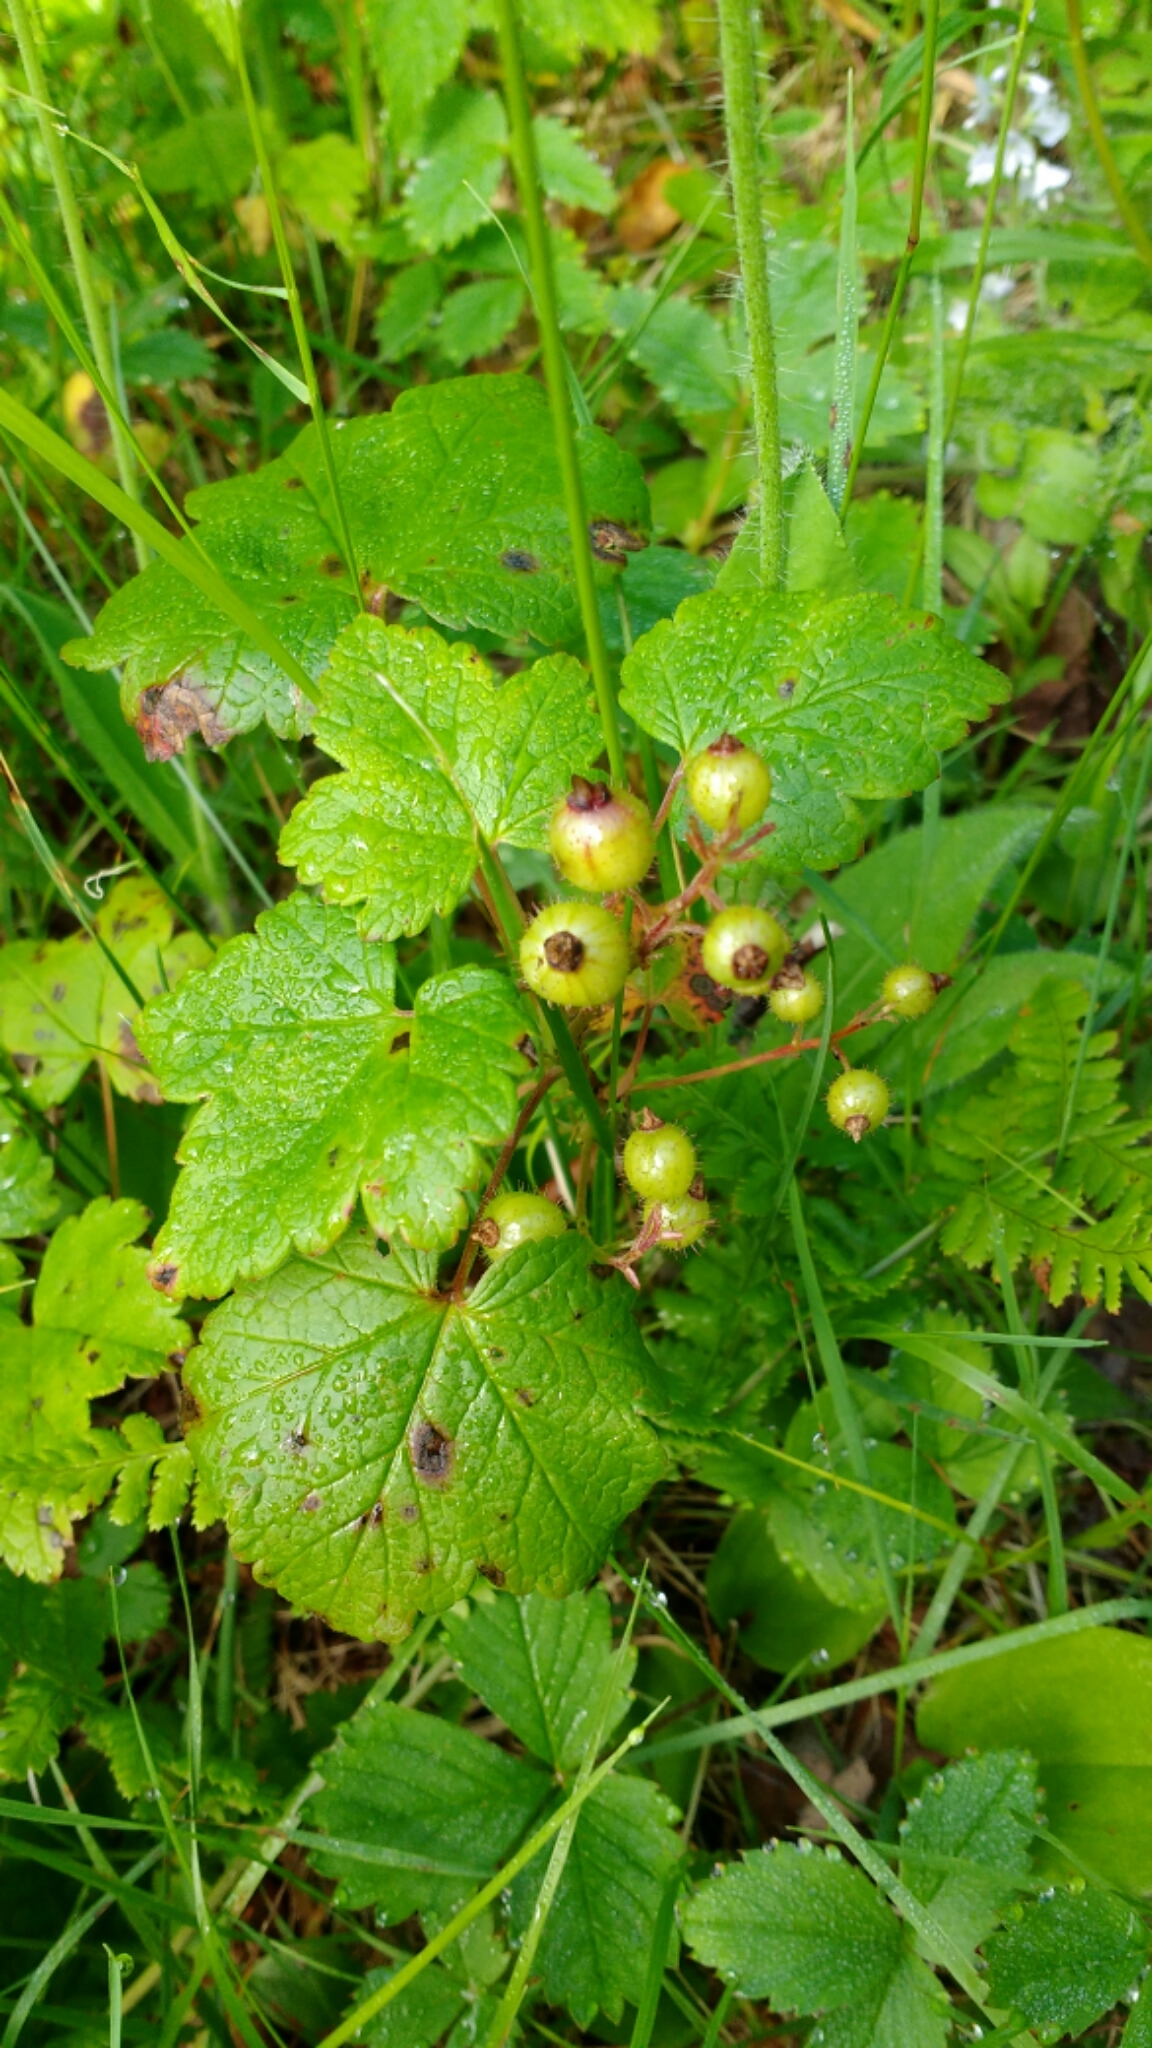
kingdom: Plantae
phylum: Tracheophyta
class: Magnoliopsida
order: Saxifragales
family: Grossulariaceae
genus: Ribes
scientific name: Ribes glandulosum
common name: Skunk currant
